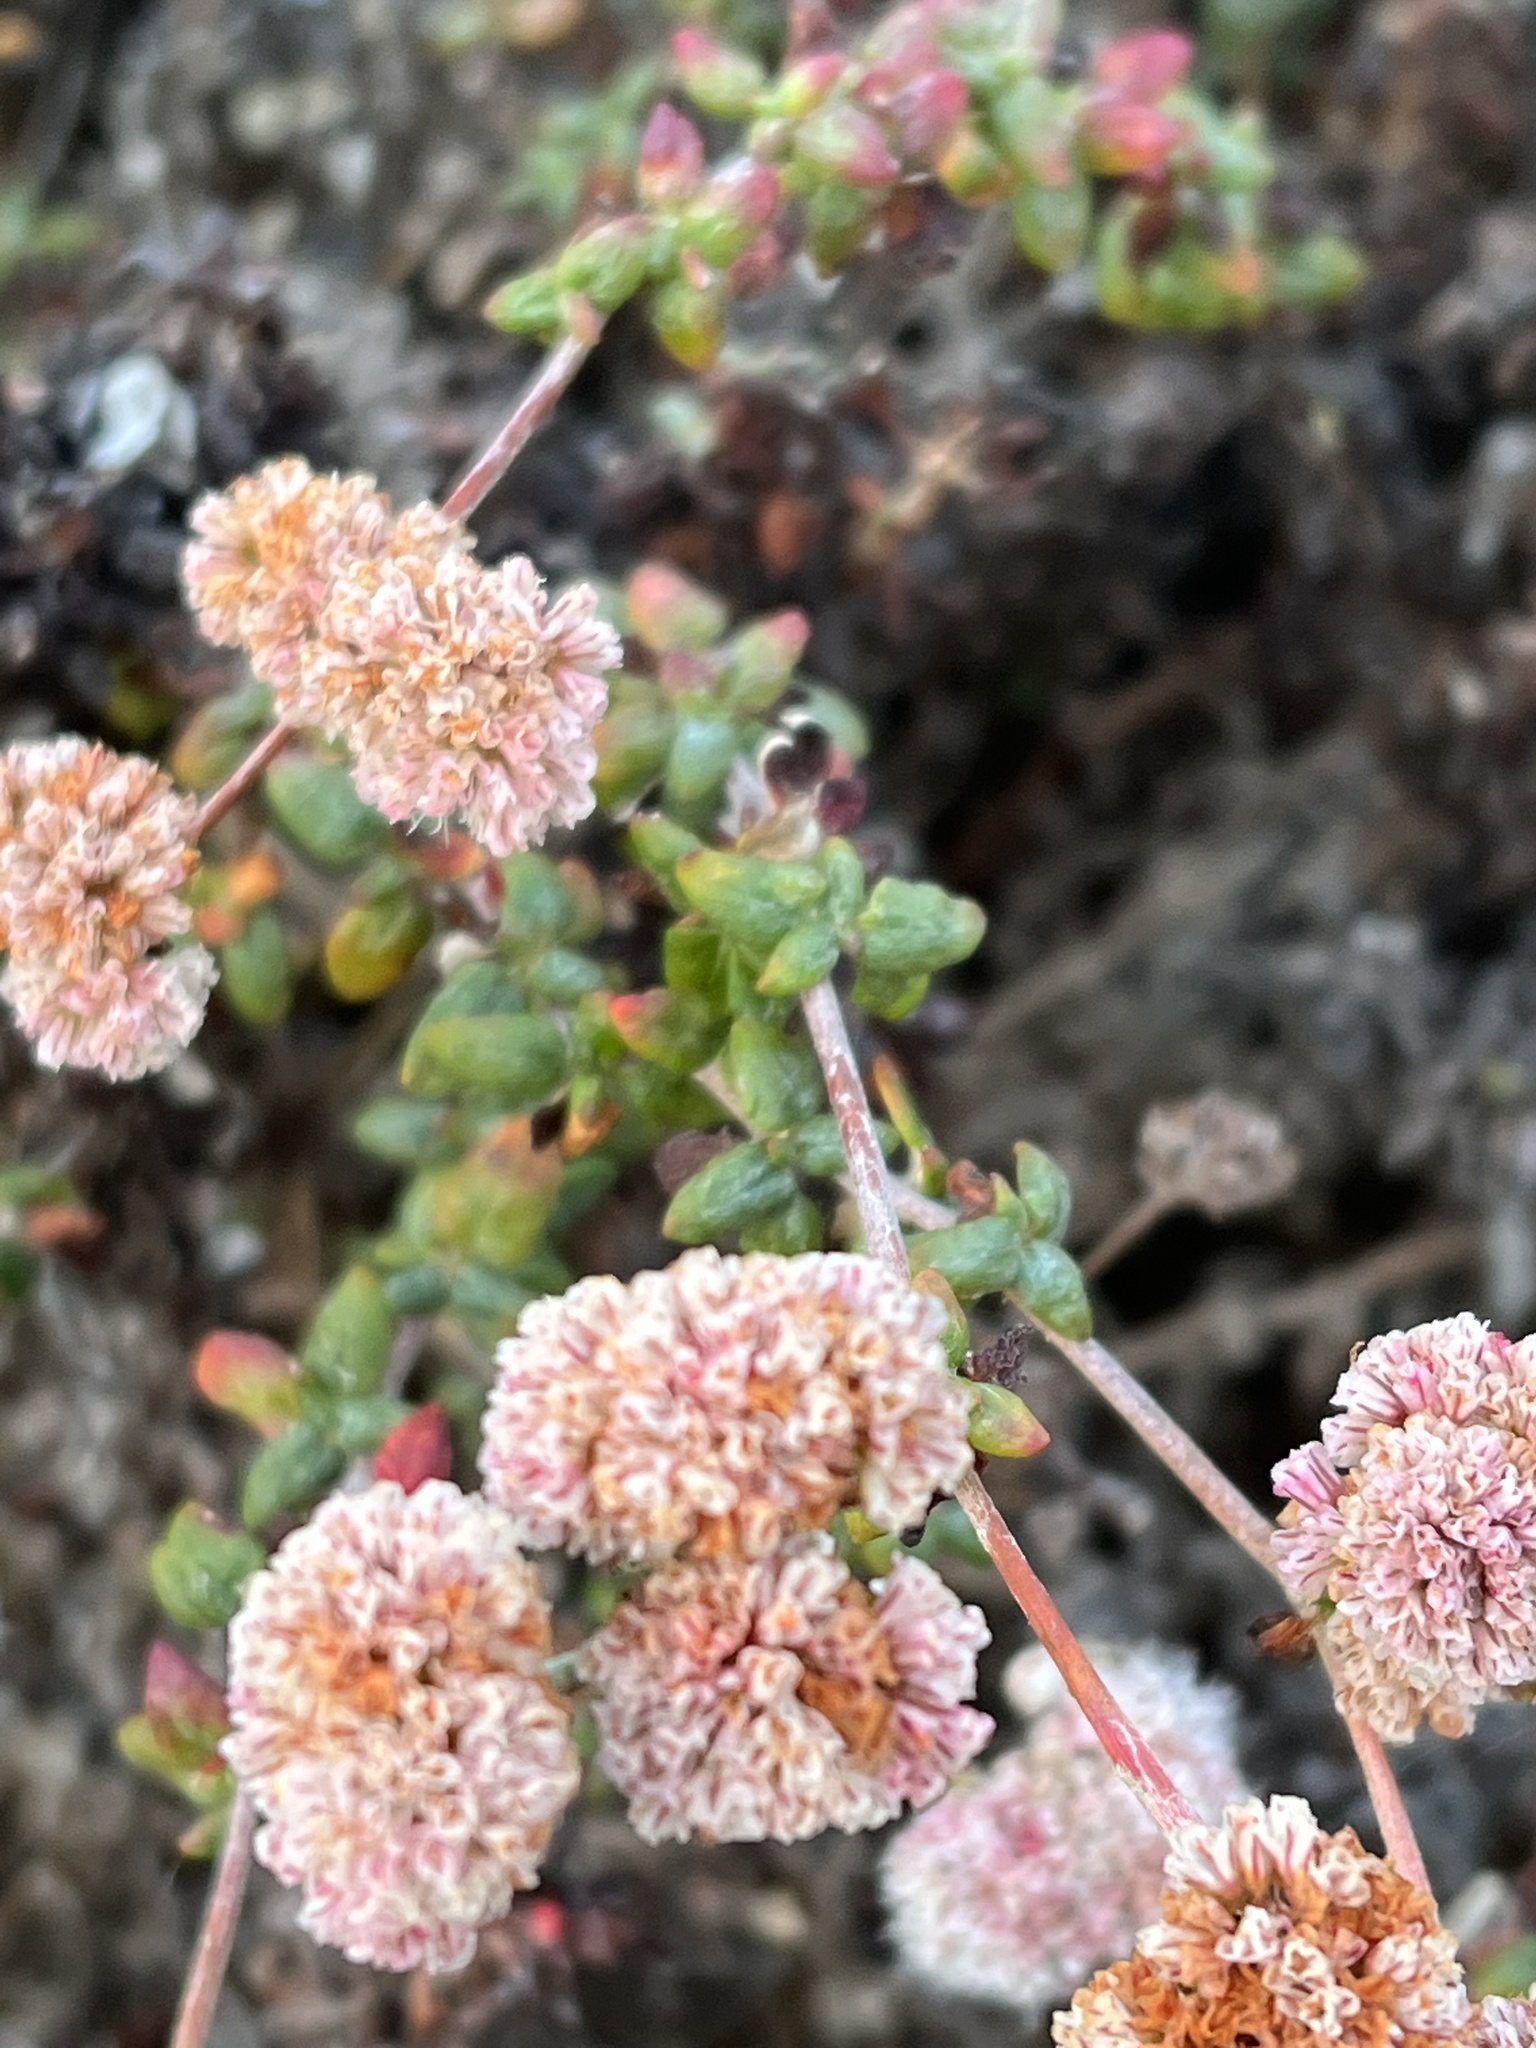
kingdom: Plantae
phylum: Tracheophyta
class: Magnoliopsida
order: Caryophyllales
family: Polygonaceae
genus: Eriogonum
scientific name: Eriogonum parvifolium
